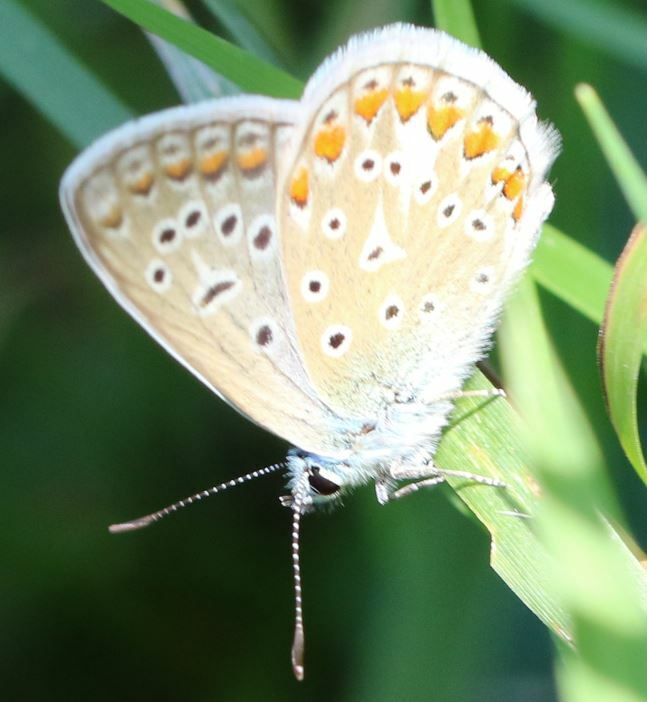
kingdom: Animalia
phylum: Arthropoda
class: Insecta
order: Lepidoptera
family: Lycaenidae
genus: Polyommatus
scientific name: Polyommatus icarus
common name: Common blue
